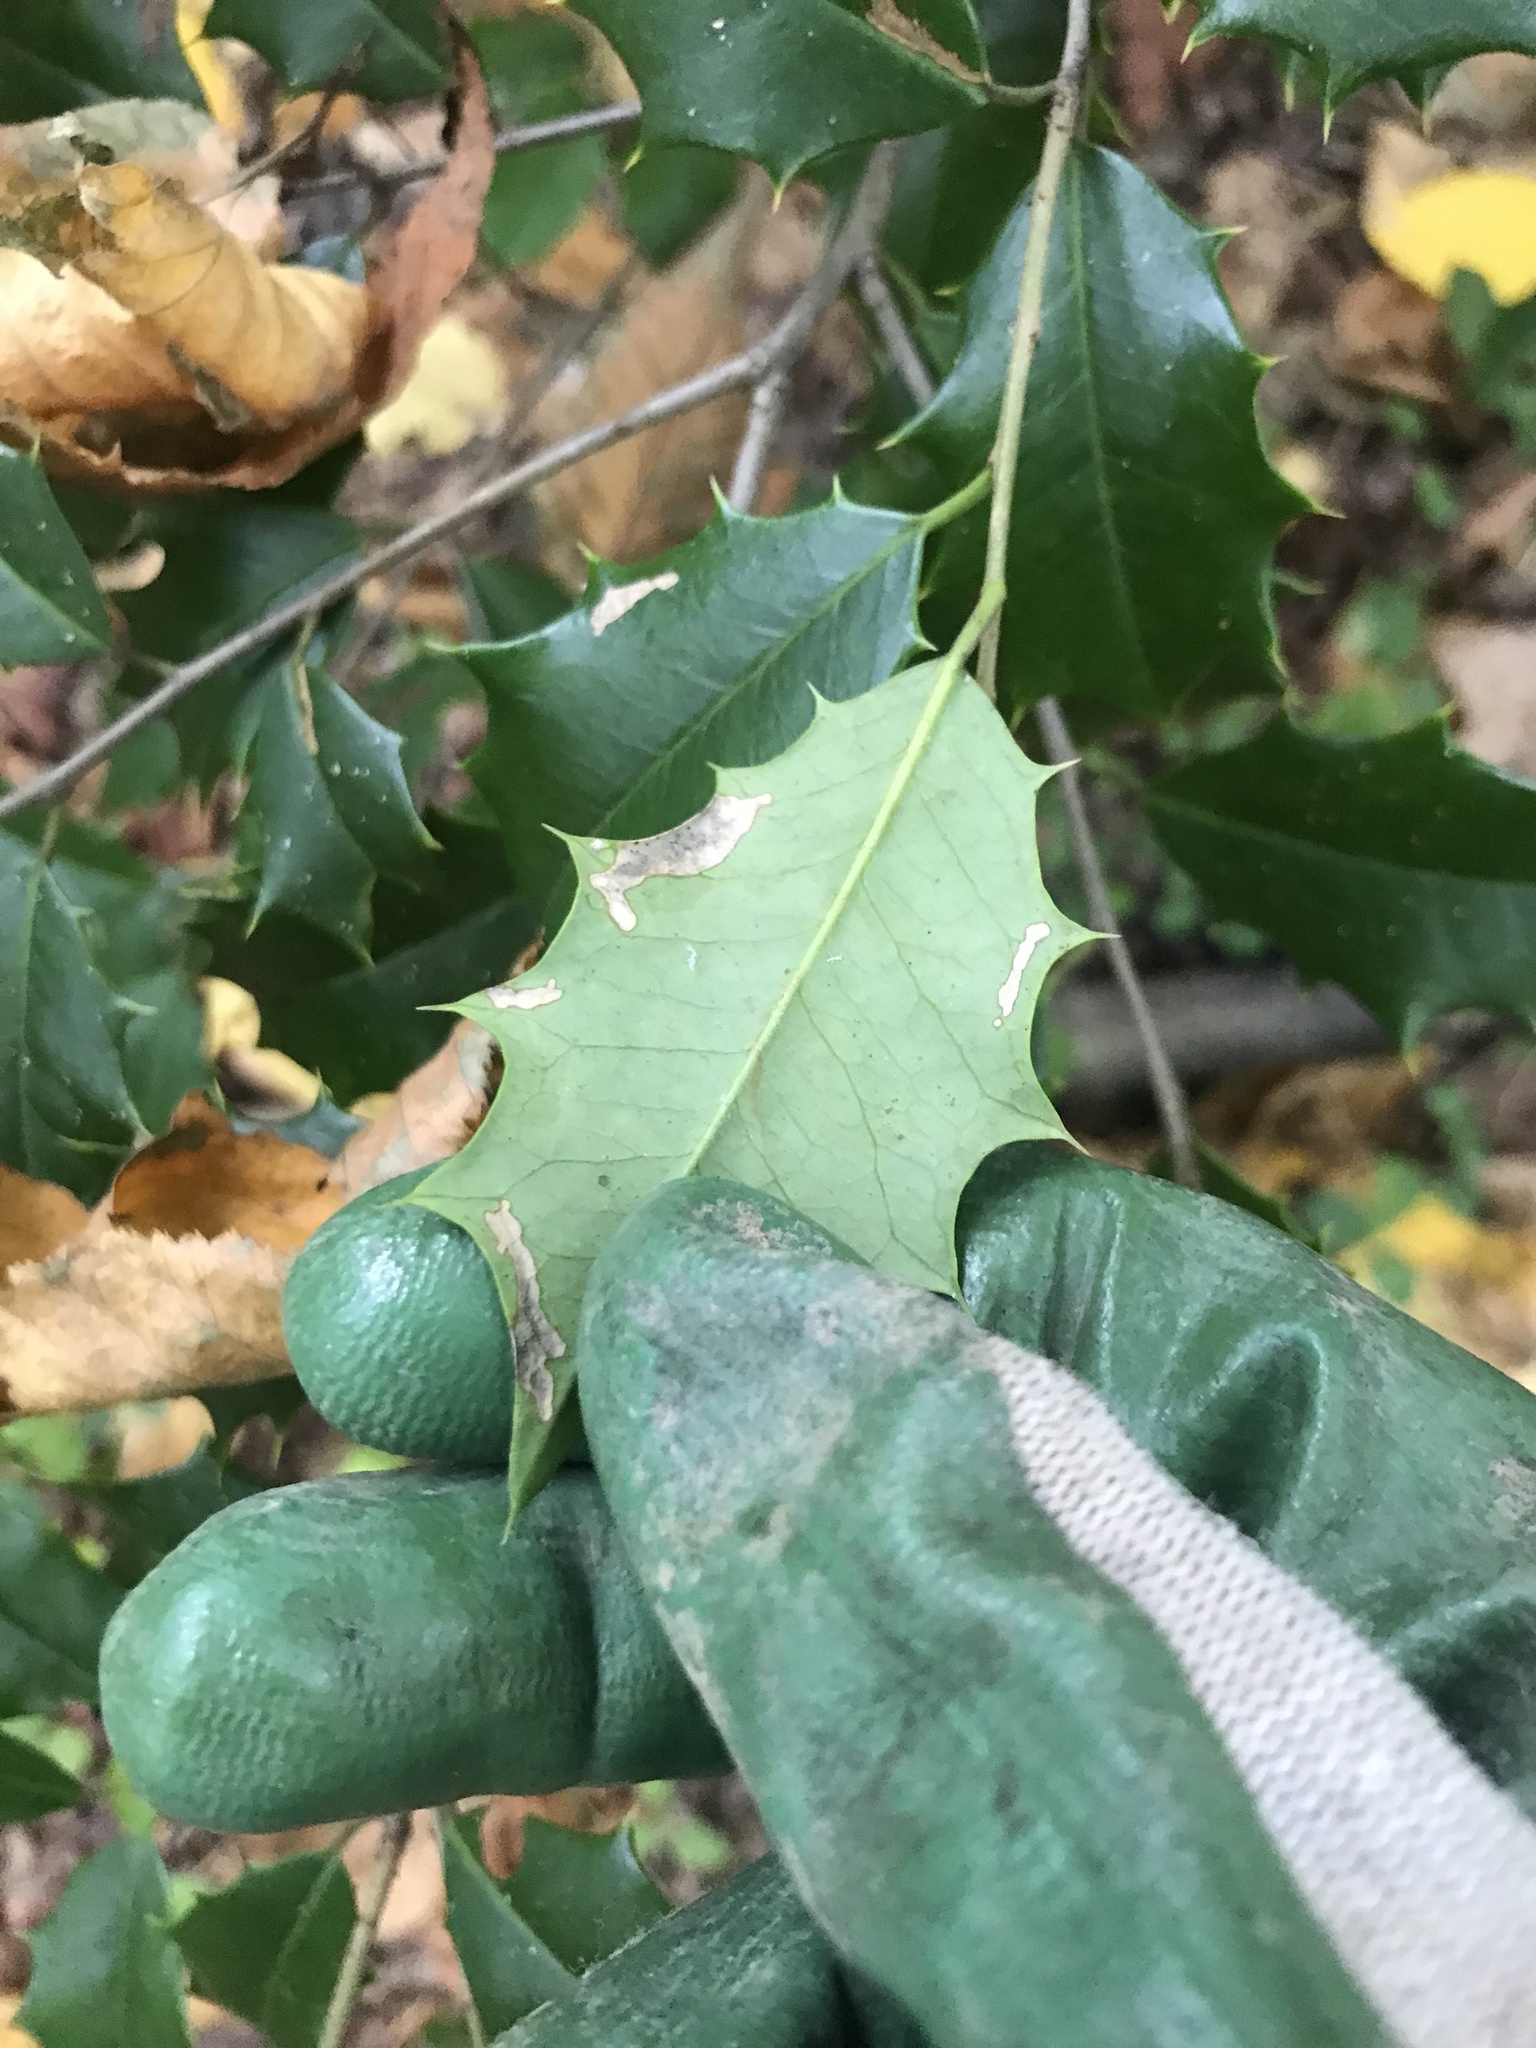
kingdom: Plantae
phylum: Tracheophyta
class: Magnoliopsida
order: Aquifoliales
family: Aquifoliaceae
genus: Ilex
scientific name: Ilex opaca
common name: American holly
